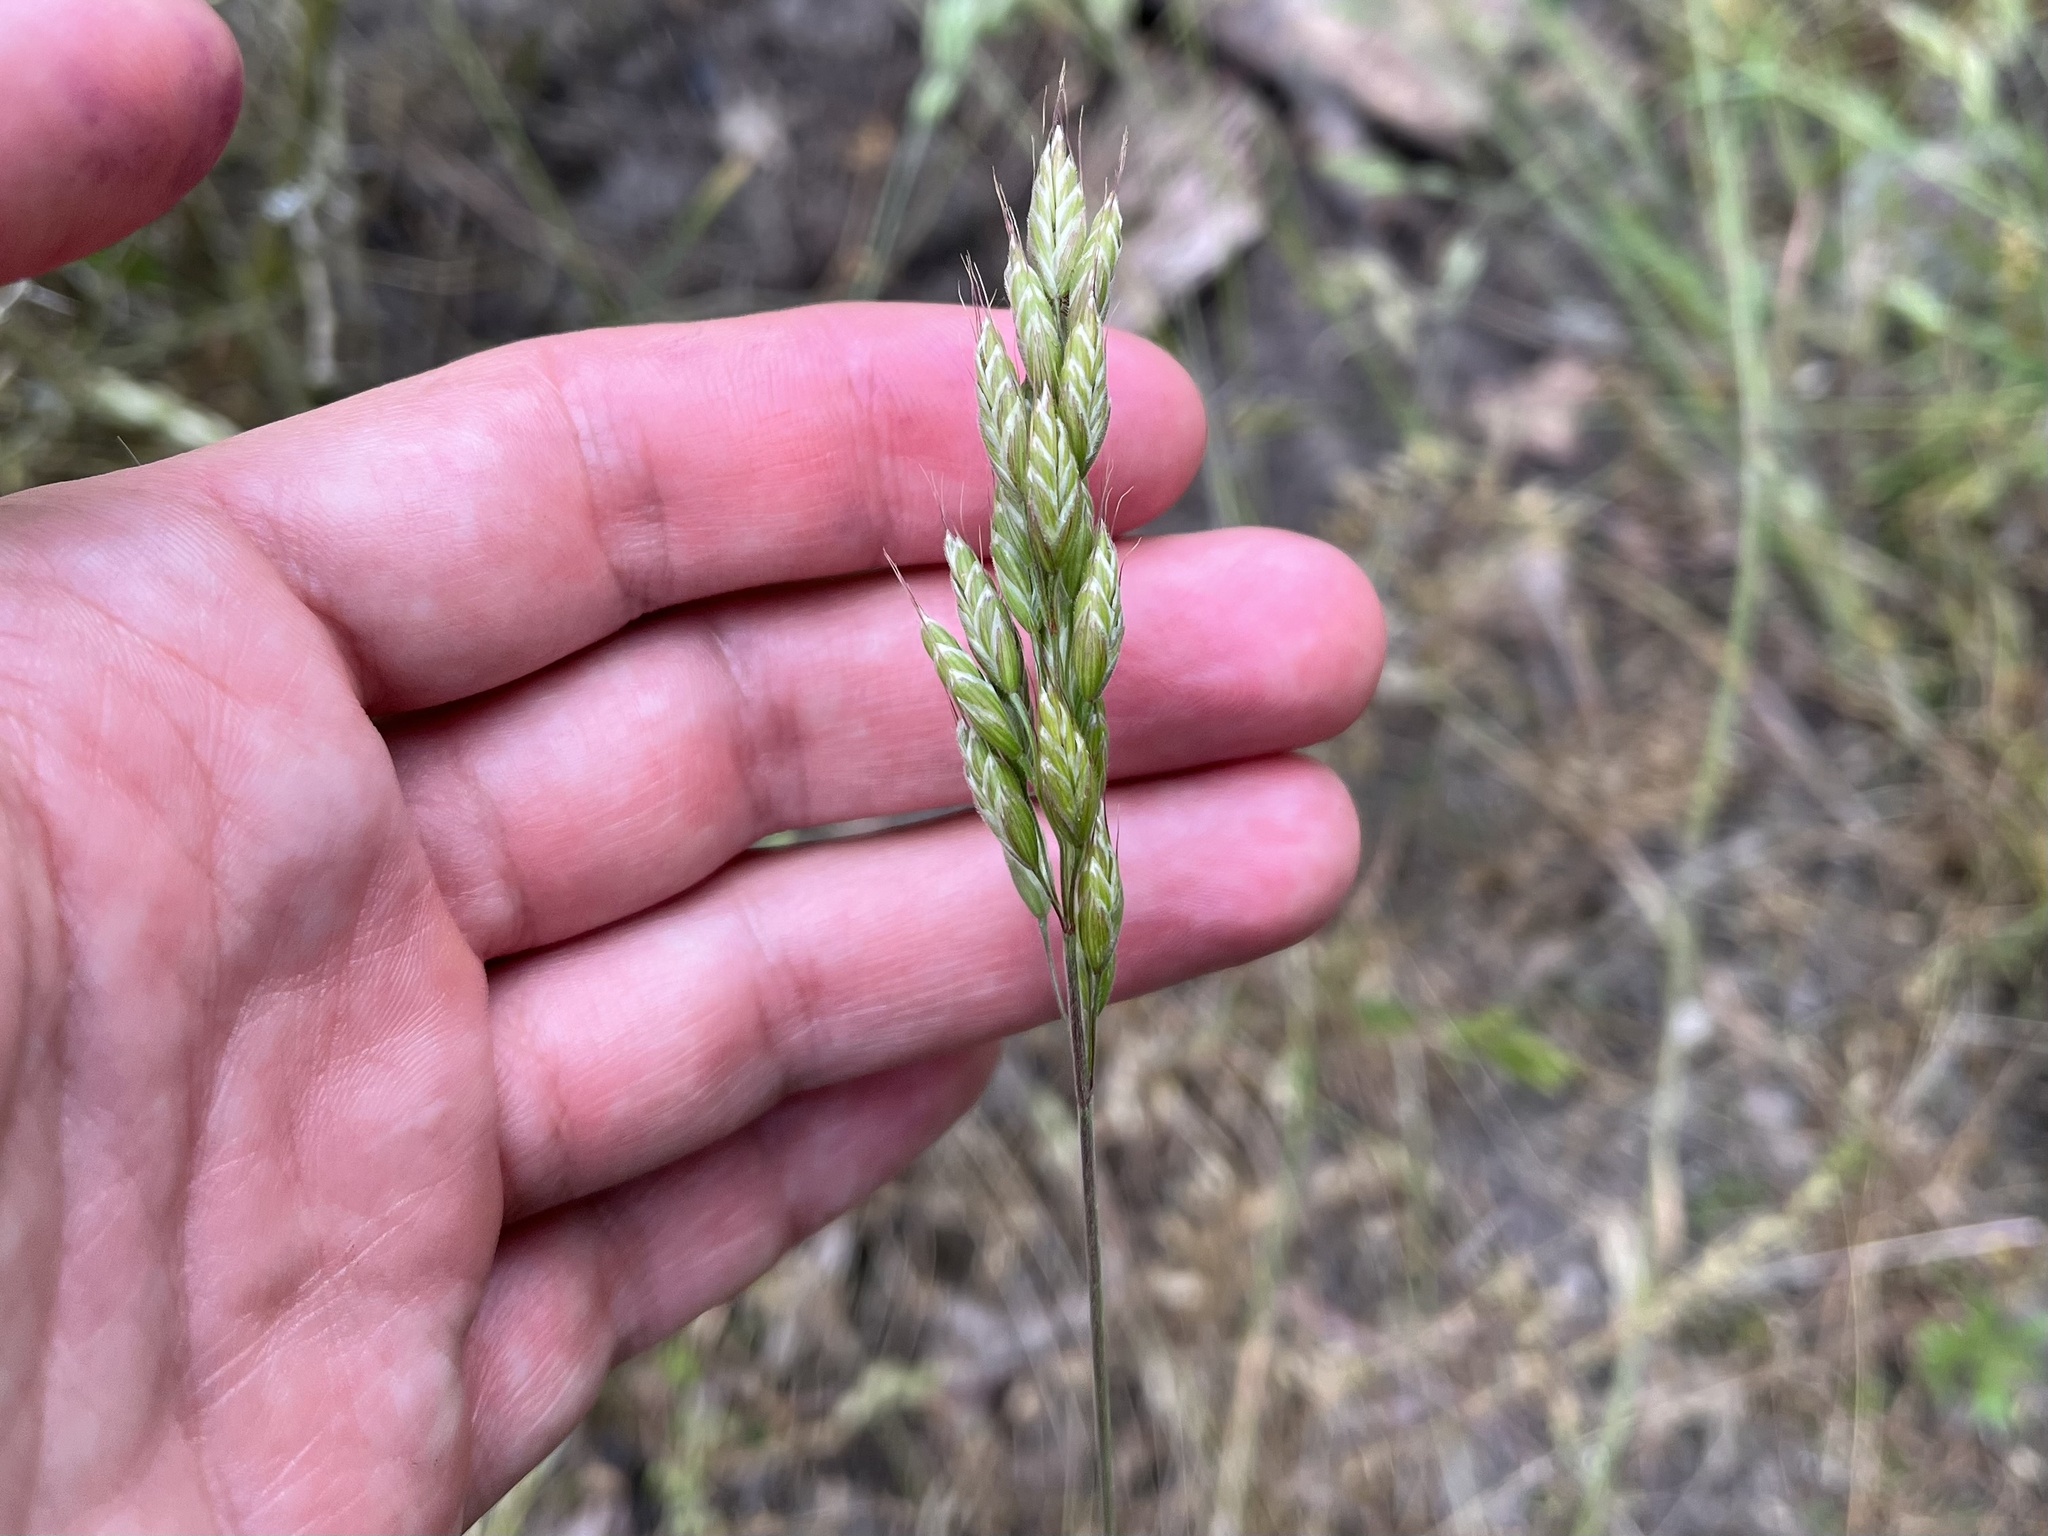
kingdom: Plantae
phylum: Tracheophyta
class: Liliopsida
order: Poales
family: Poaceae
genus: Bromus
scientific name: Bromus hordeaceus
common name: Soft brome
